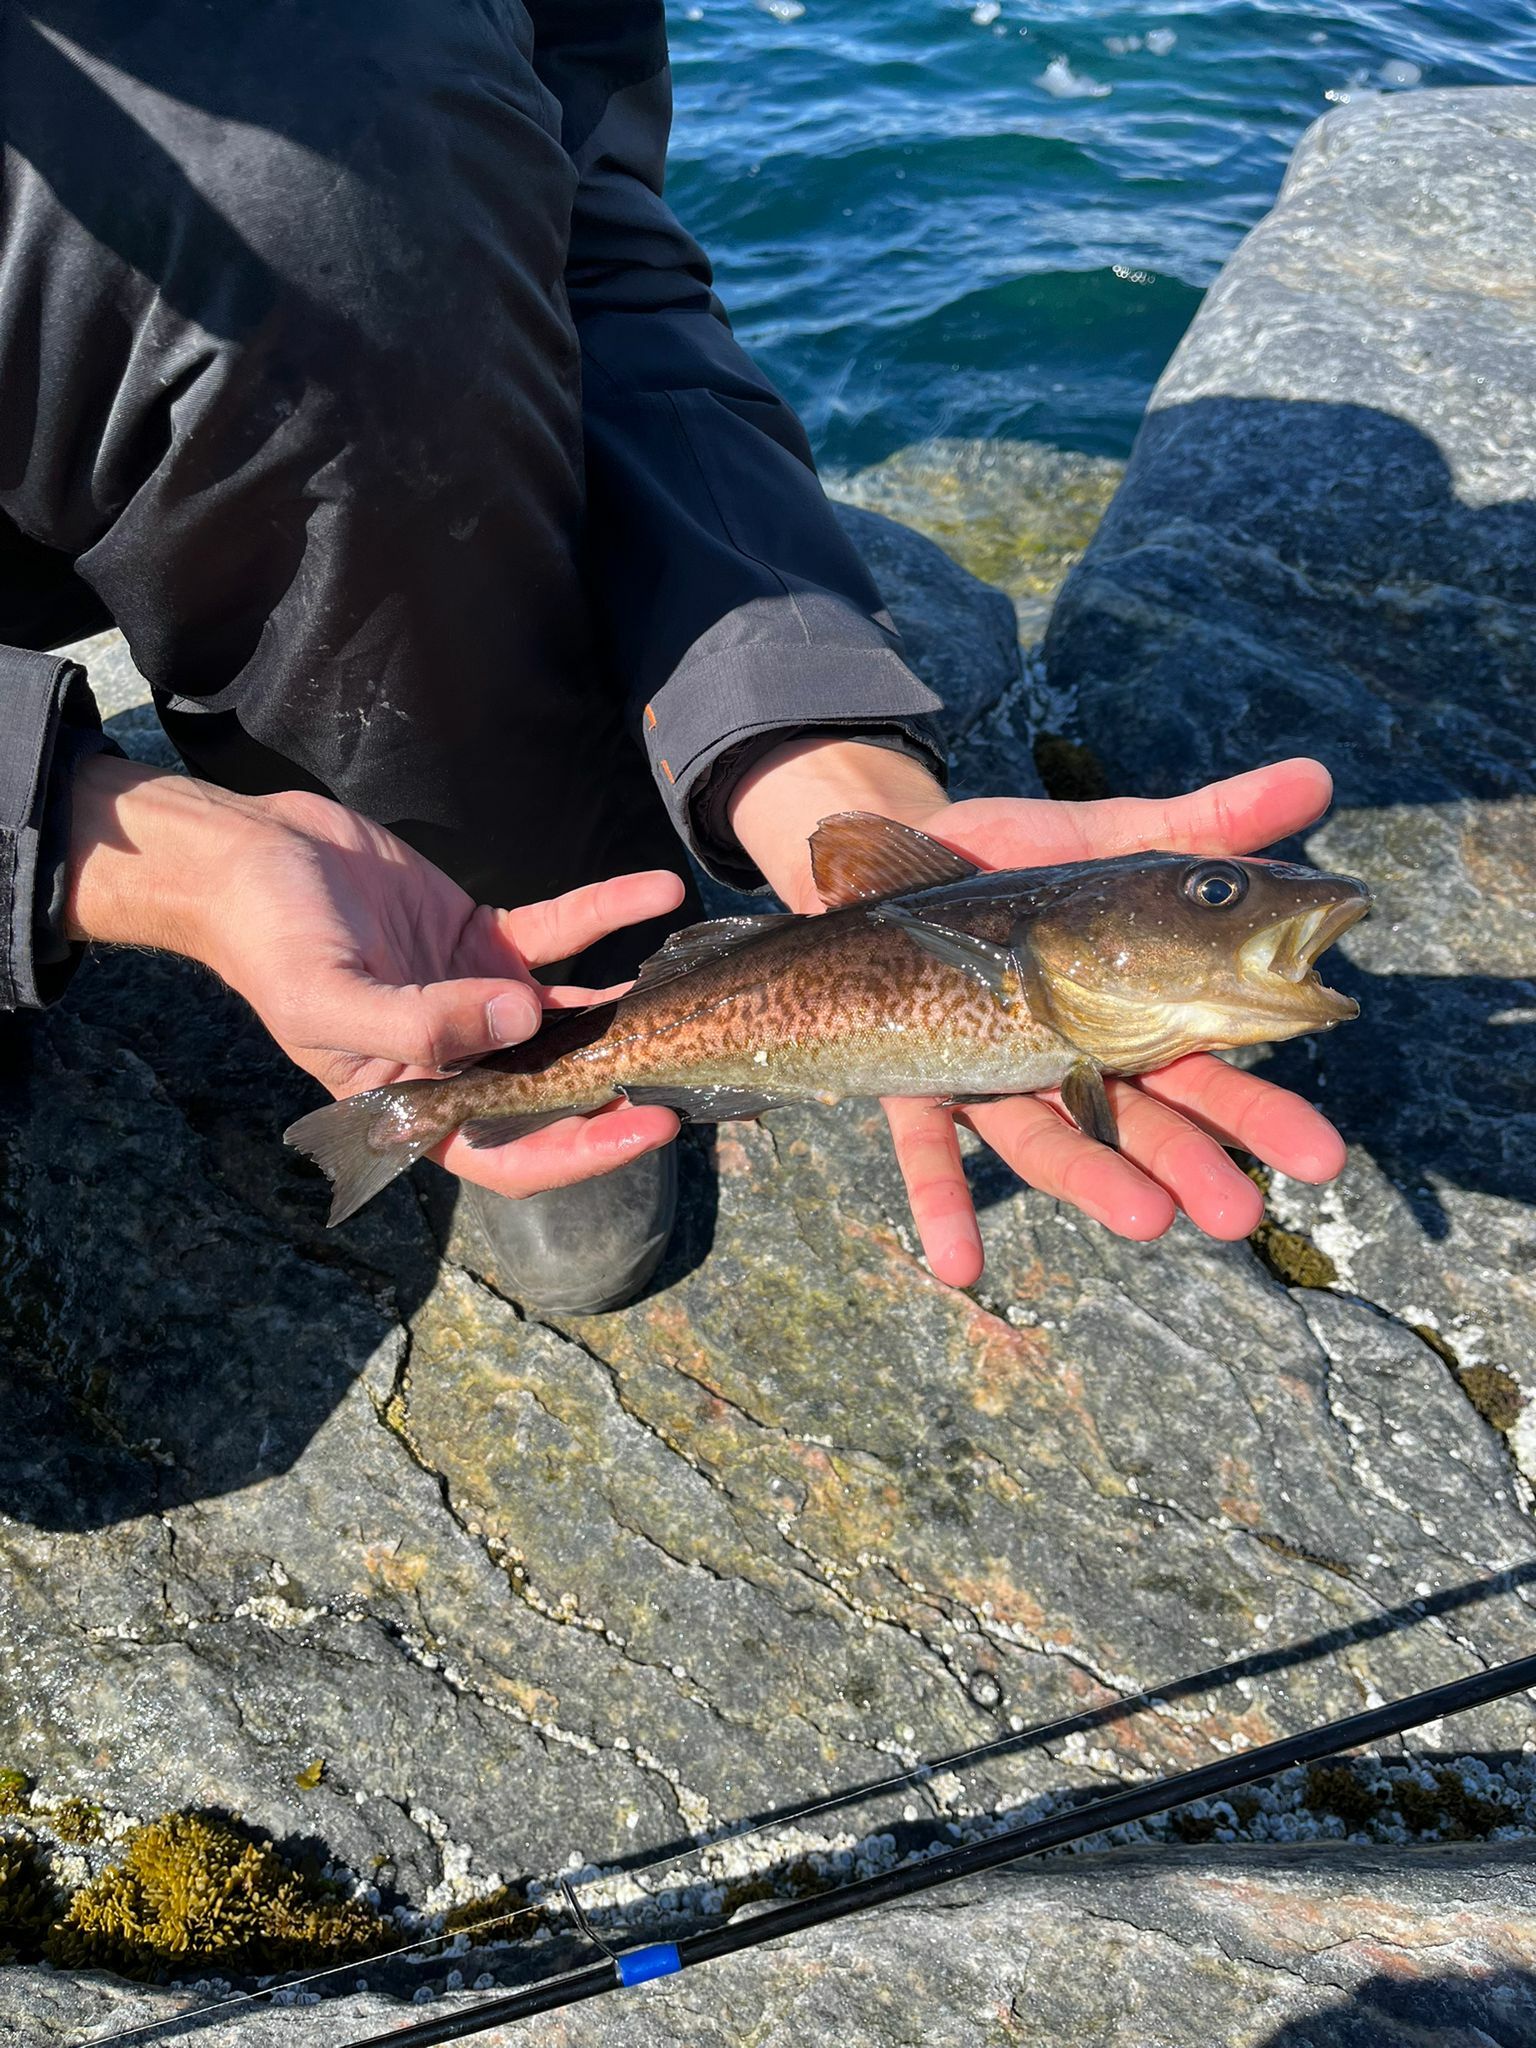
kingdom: Animalia
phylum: Chordata
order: Gadiformes
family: Gadidae
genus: Gadus
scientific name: Gadus macrocephalus
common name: Pacific cod
